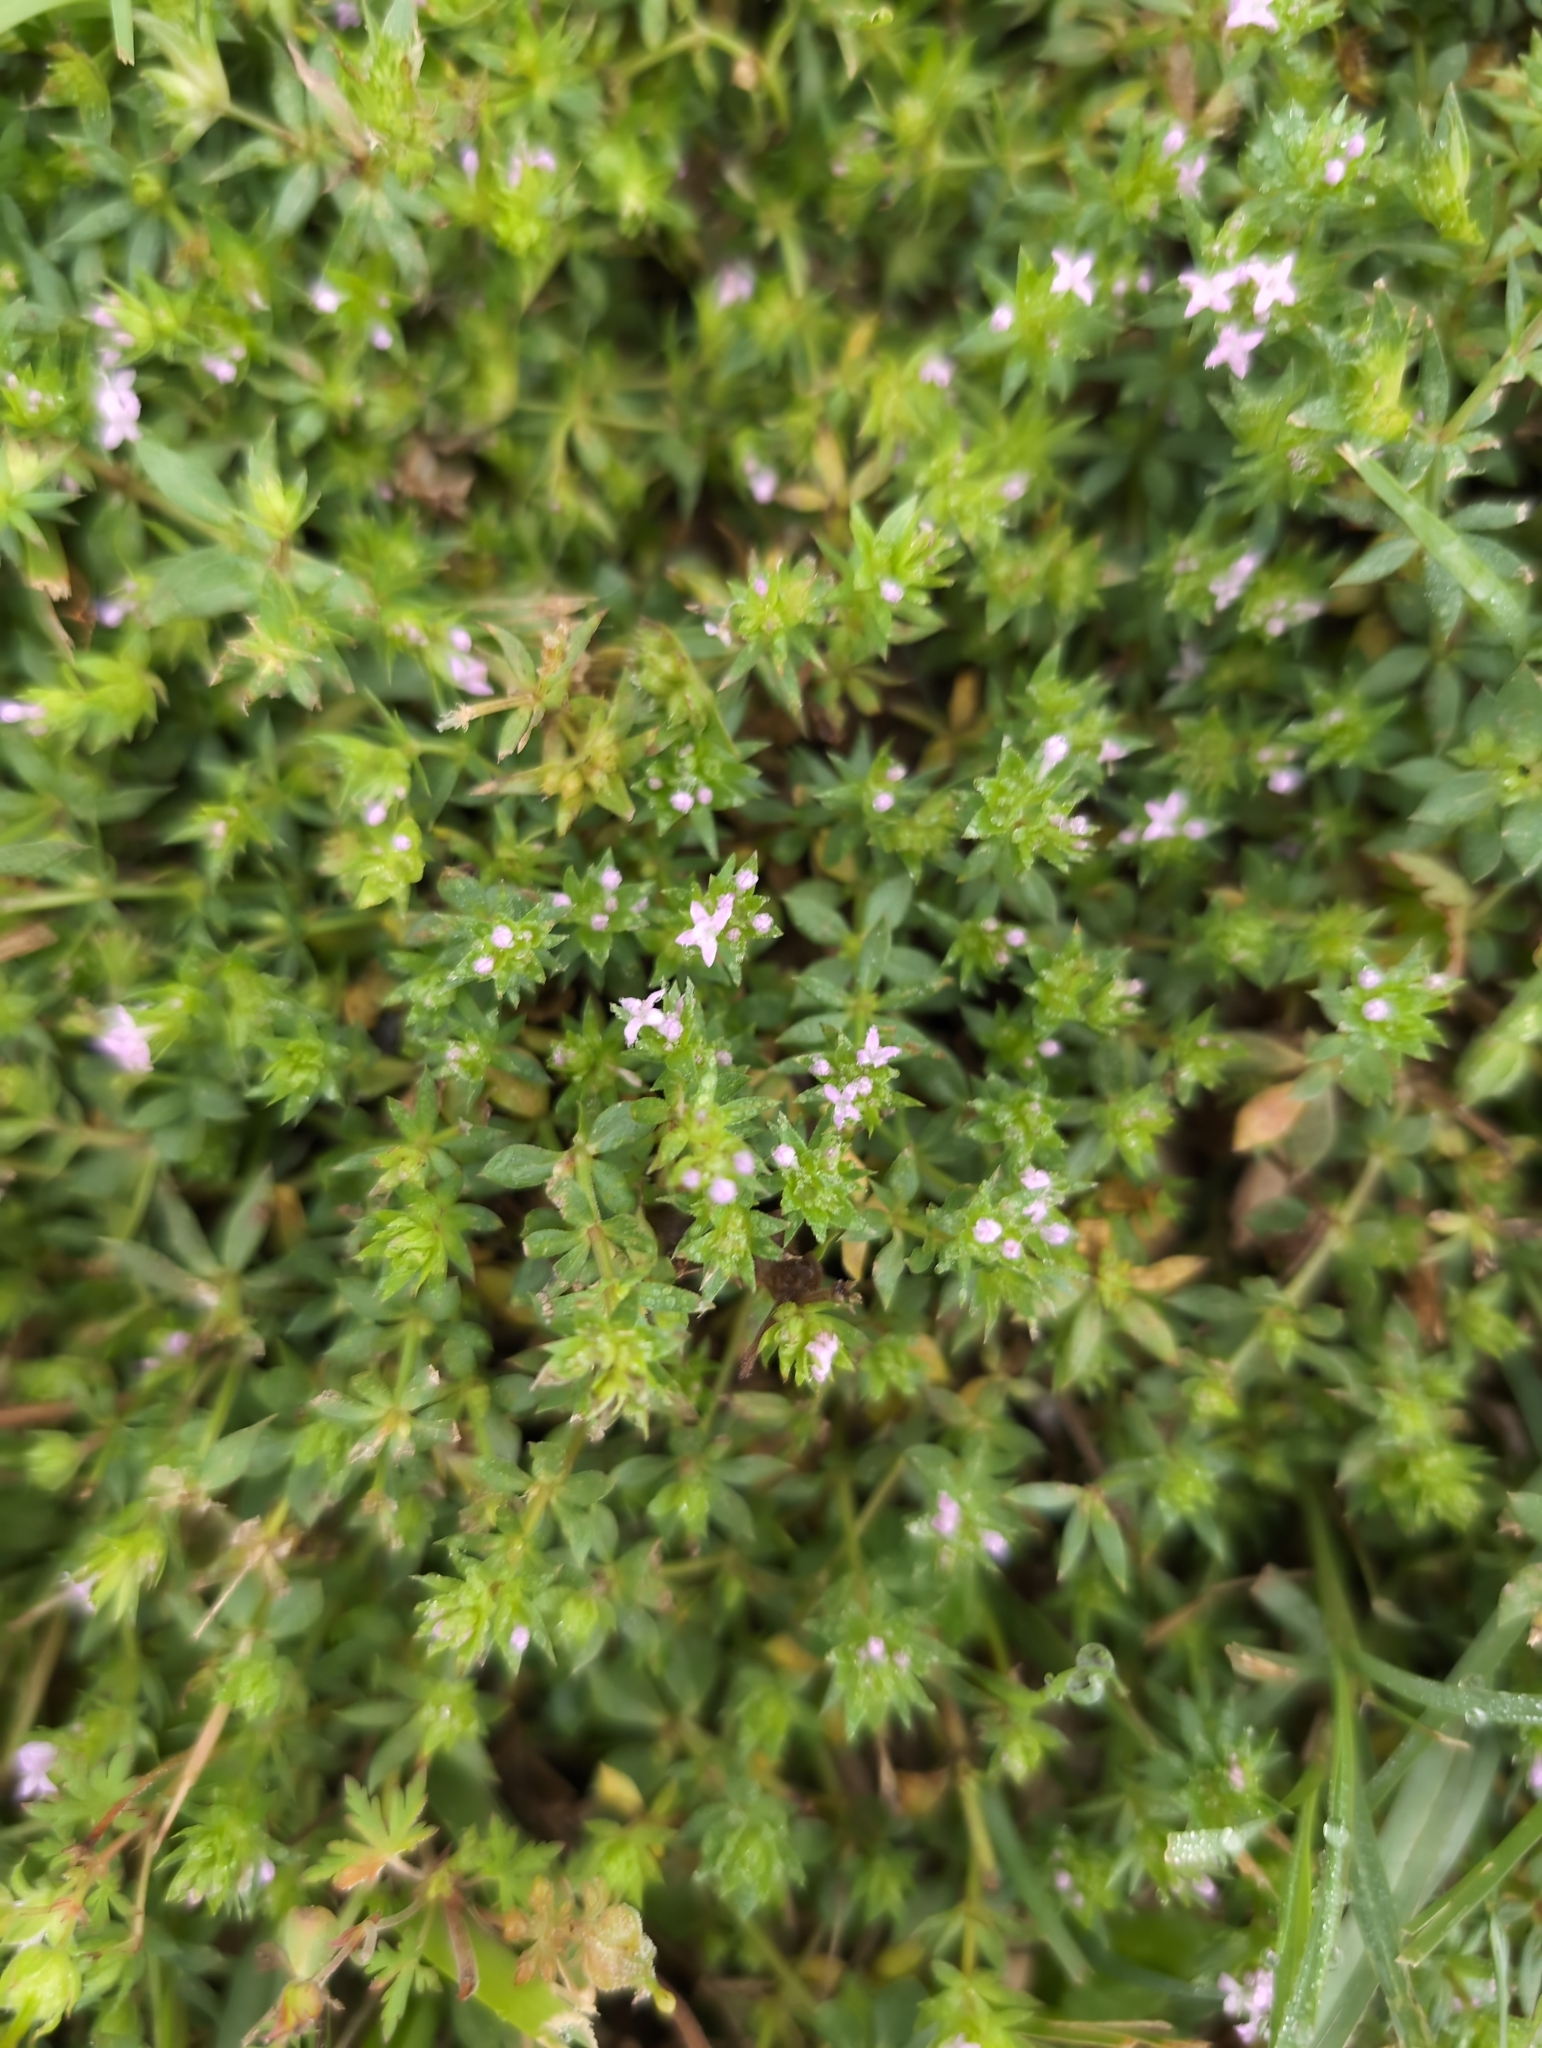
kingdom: Plantae
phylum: Tracheophyta
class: Magnoliopsida
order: Gentianales
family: Rubiaceae
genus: Sherardia
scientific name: Sherardia arvensis
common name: Field madder
